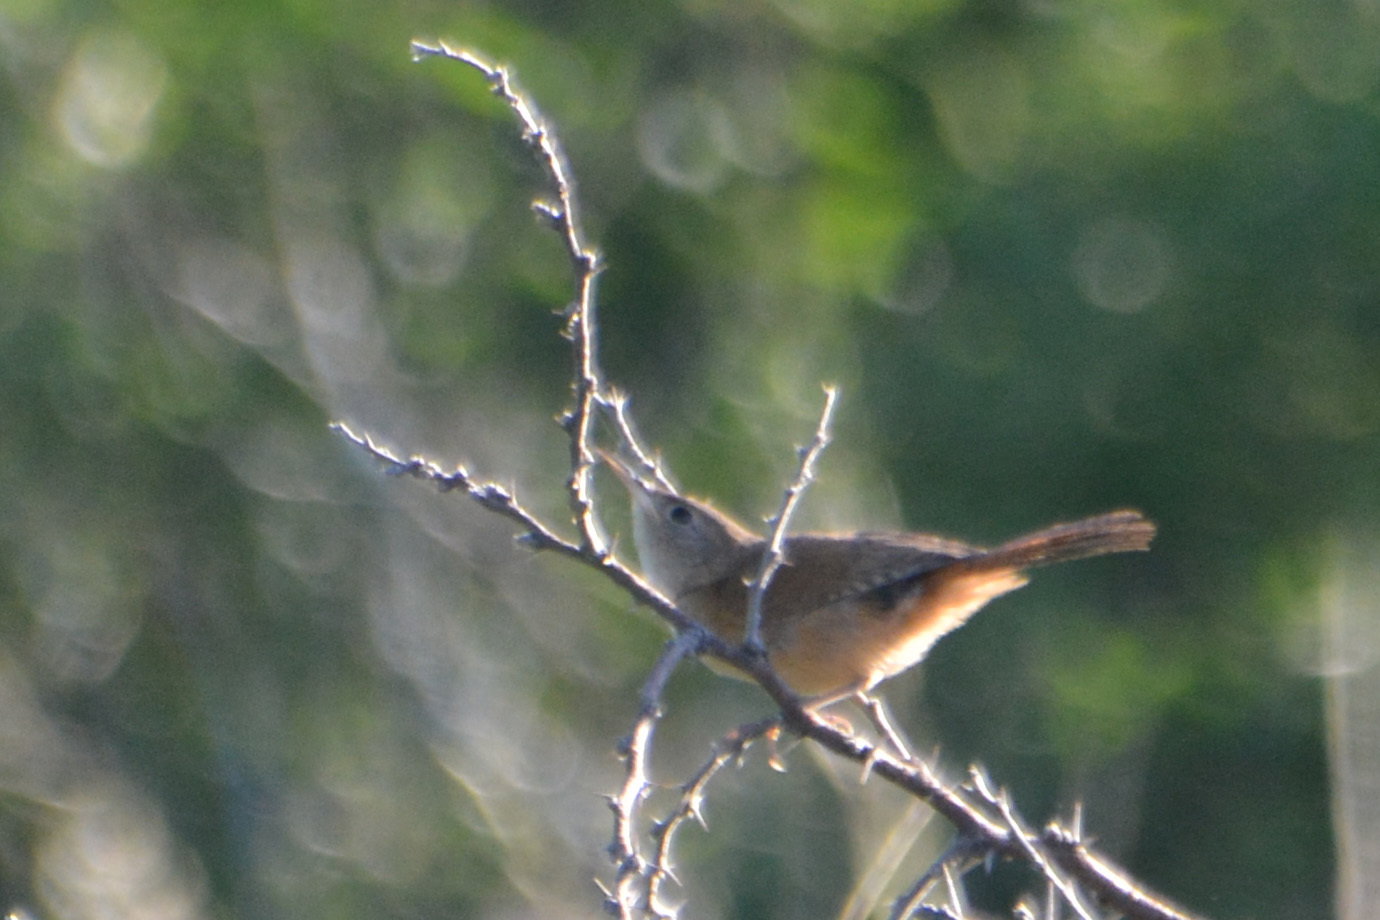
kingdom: Animalia
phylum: Chordata
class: Aves
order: Passeriformes
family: Troglodytidae
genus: Troglodytes
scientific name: Troglodytes aedon
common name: House wren
